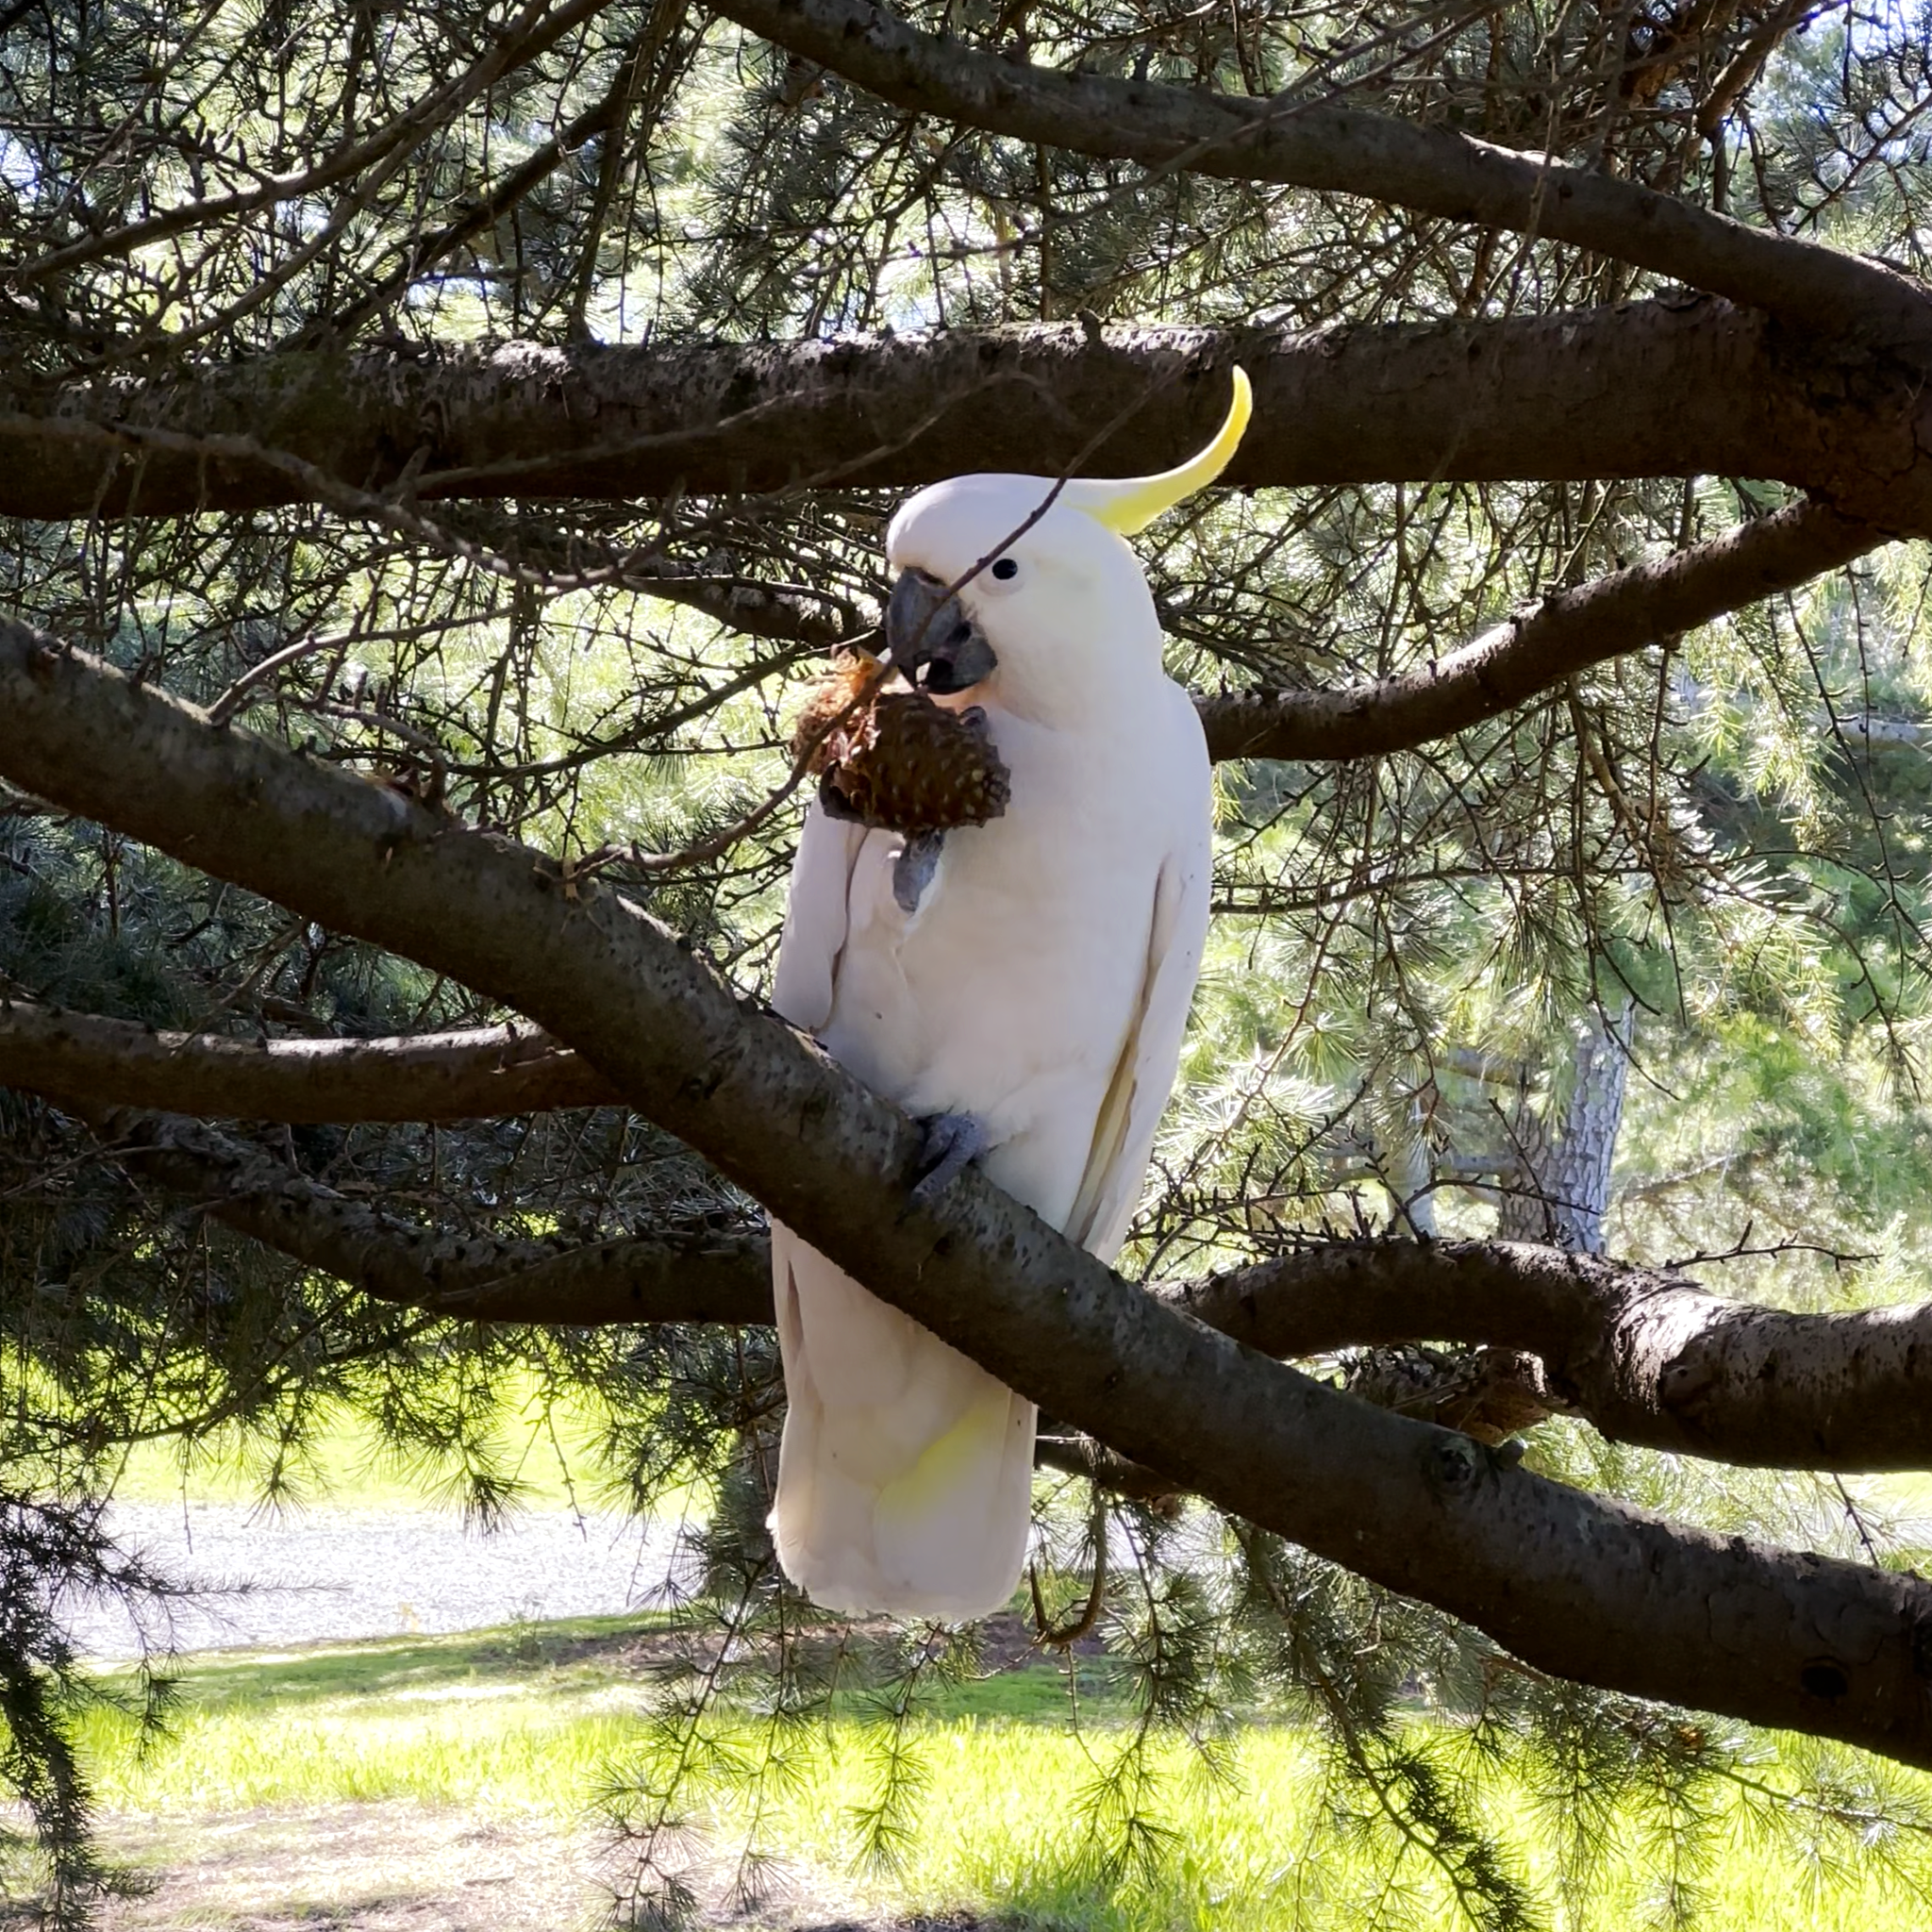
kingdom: Animalia
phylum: Chordata
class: Aves
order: Psittaciformes
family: Psittacidae
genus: Cacatua
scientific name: Cacatua galerita
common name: Sulphur-crested cockatoo
